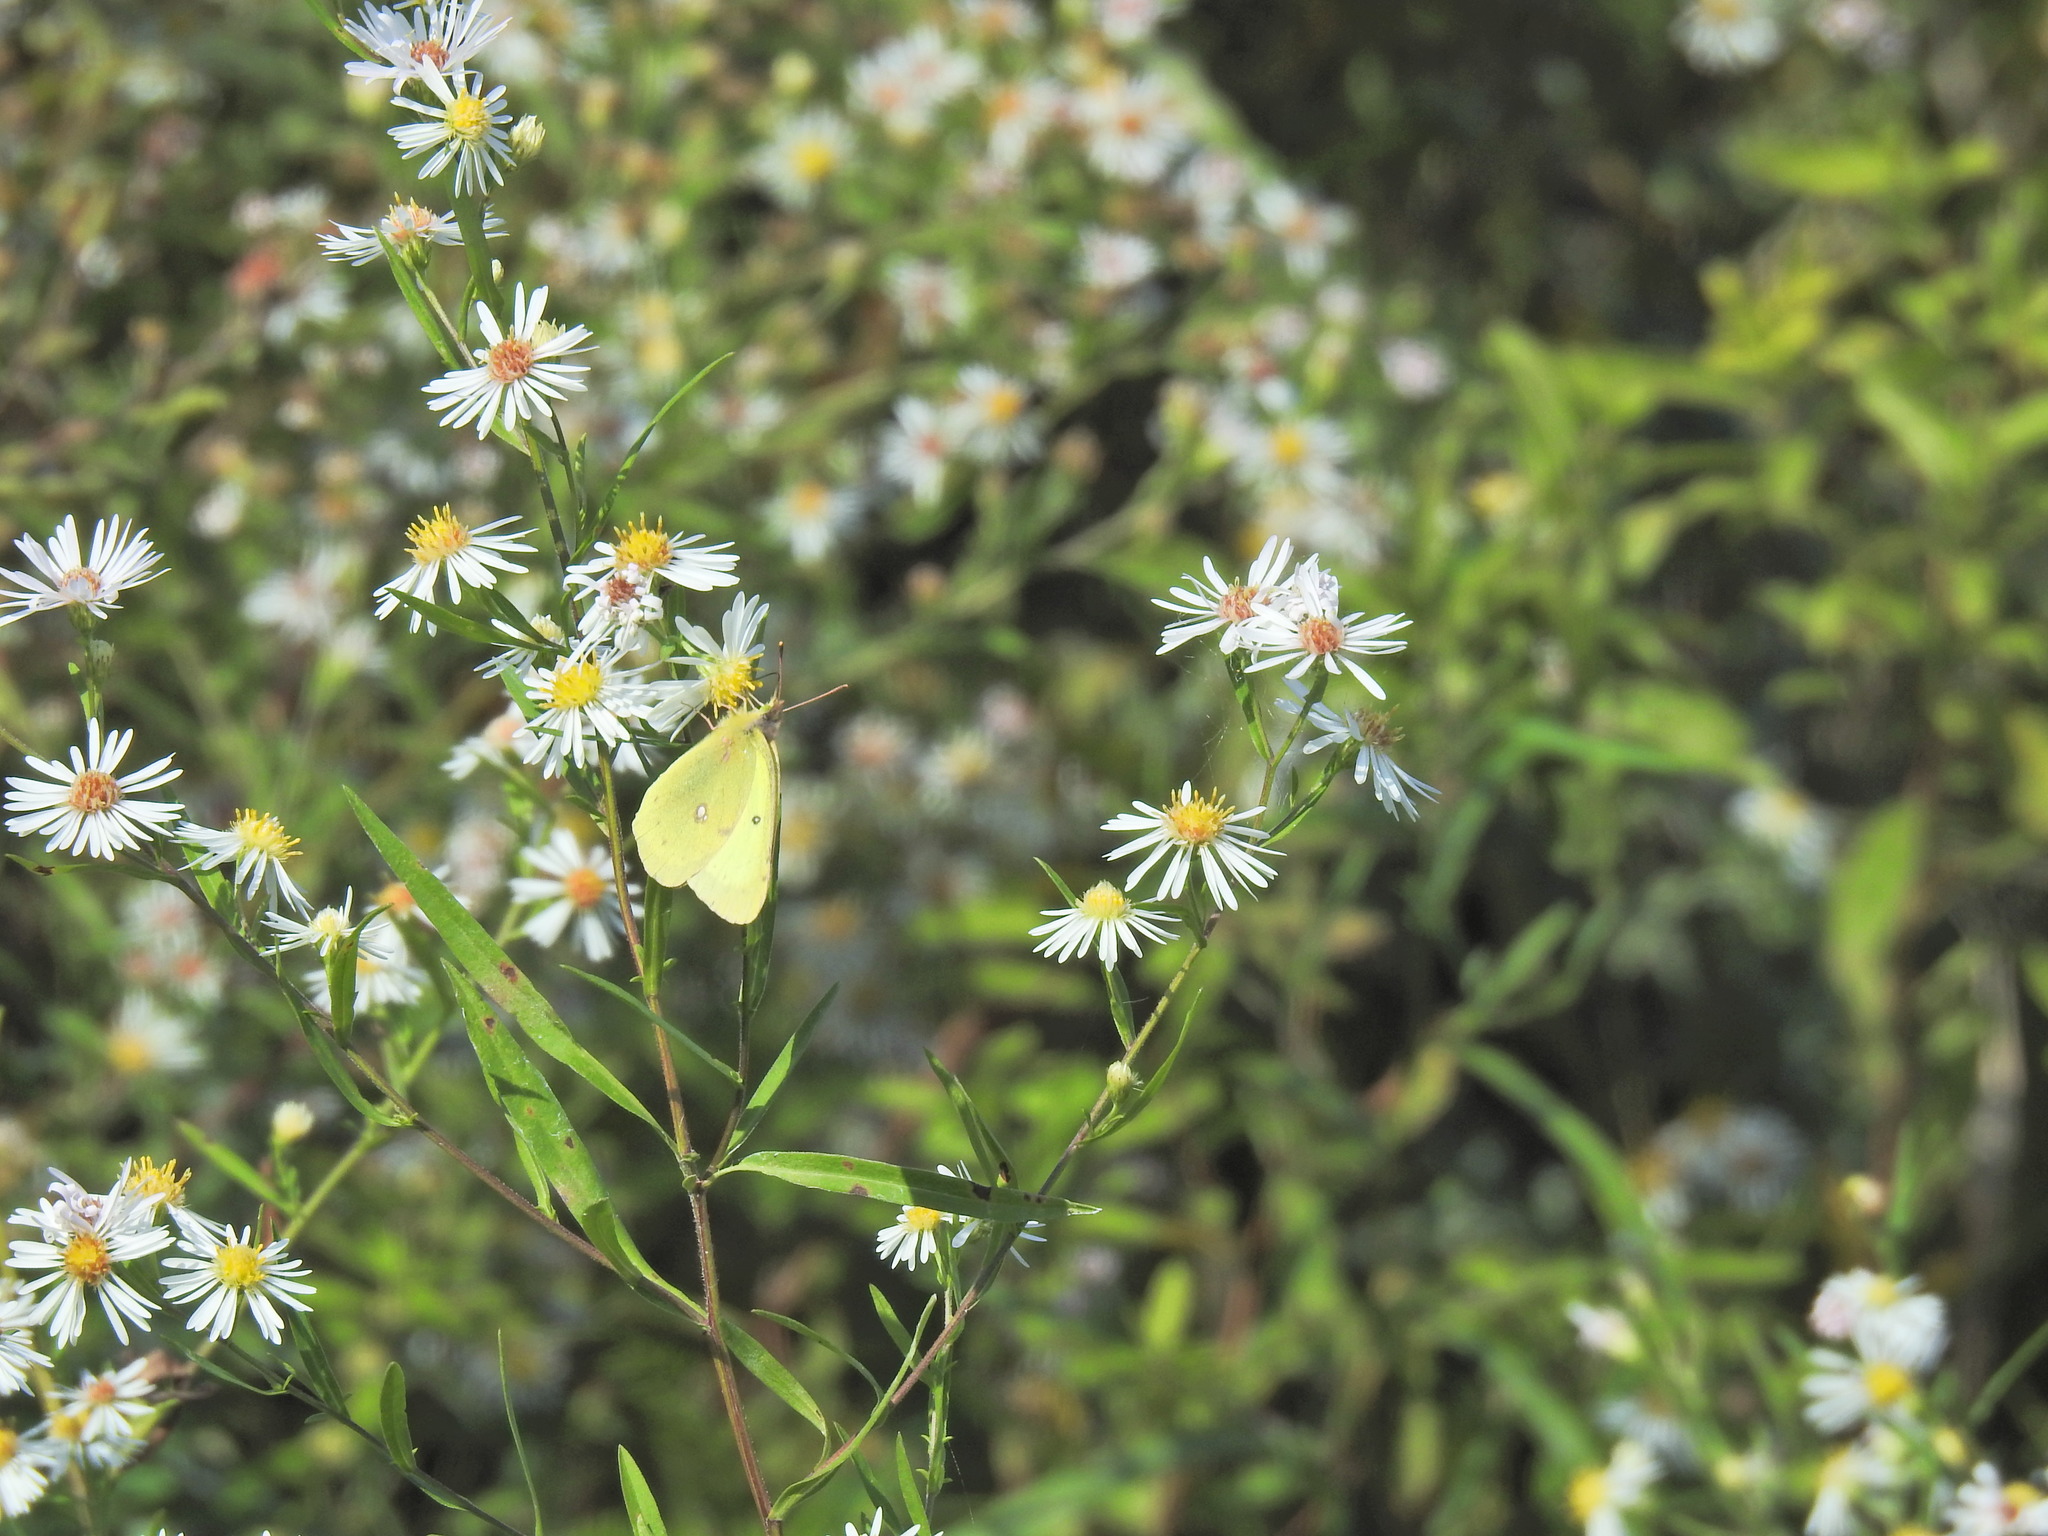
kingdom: Animalia
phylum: Arthropoda
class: Insecta
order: Lepidoptera
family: Pieridae
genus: Colias
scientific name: Colias philodice
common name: Clouded sulphur
